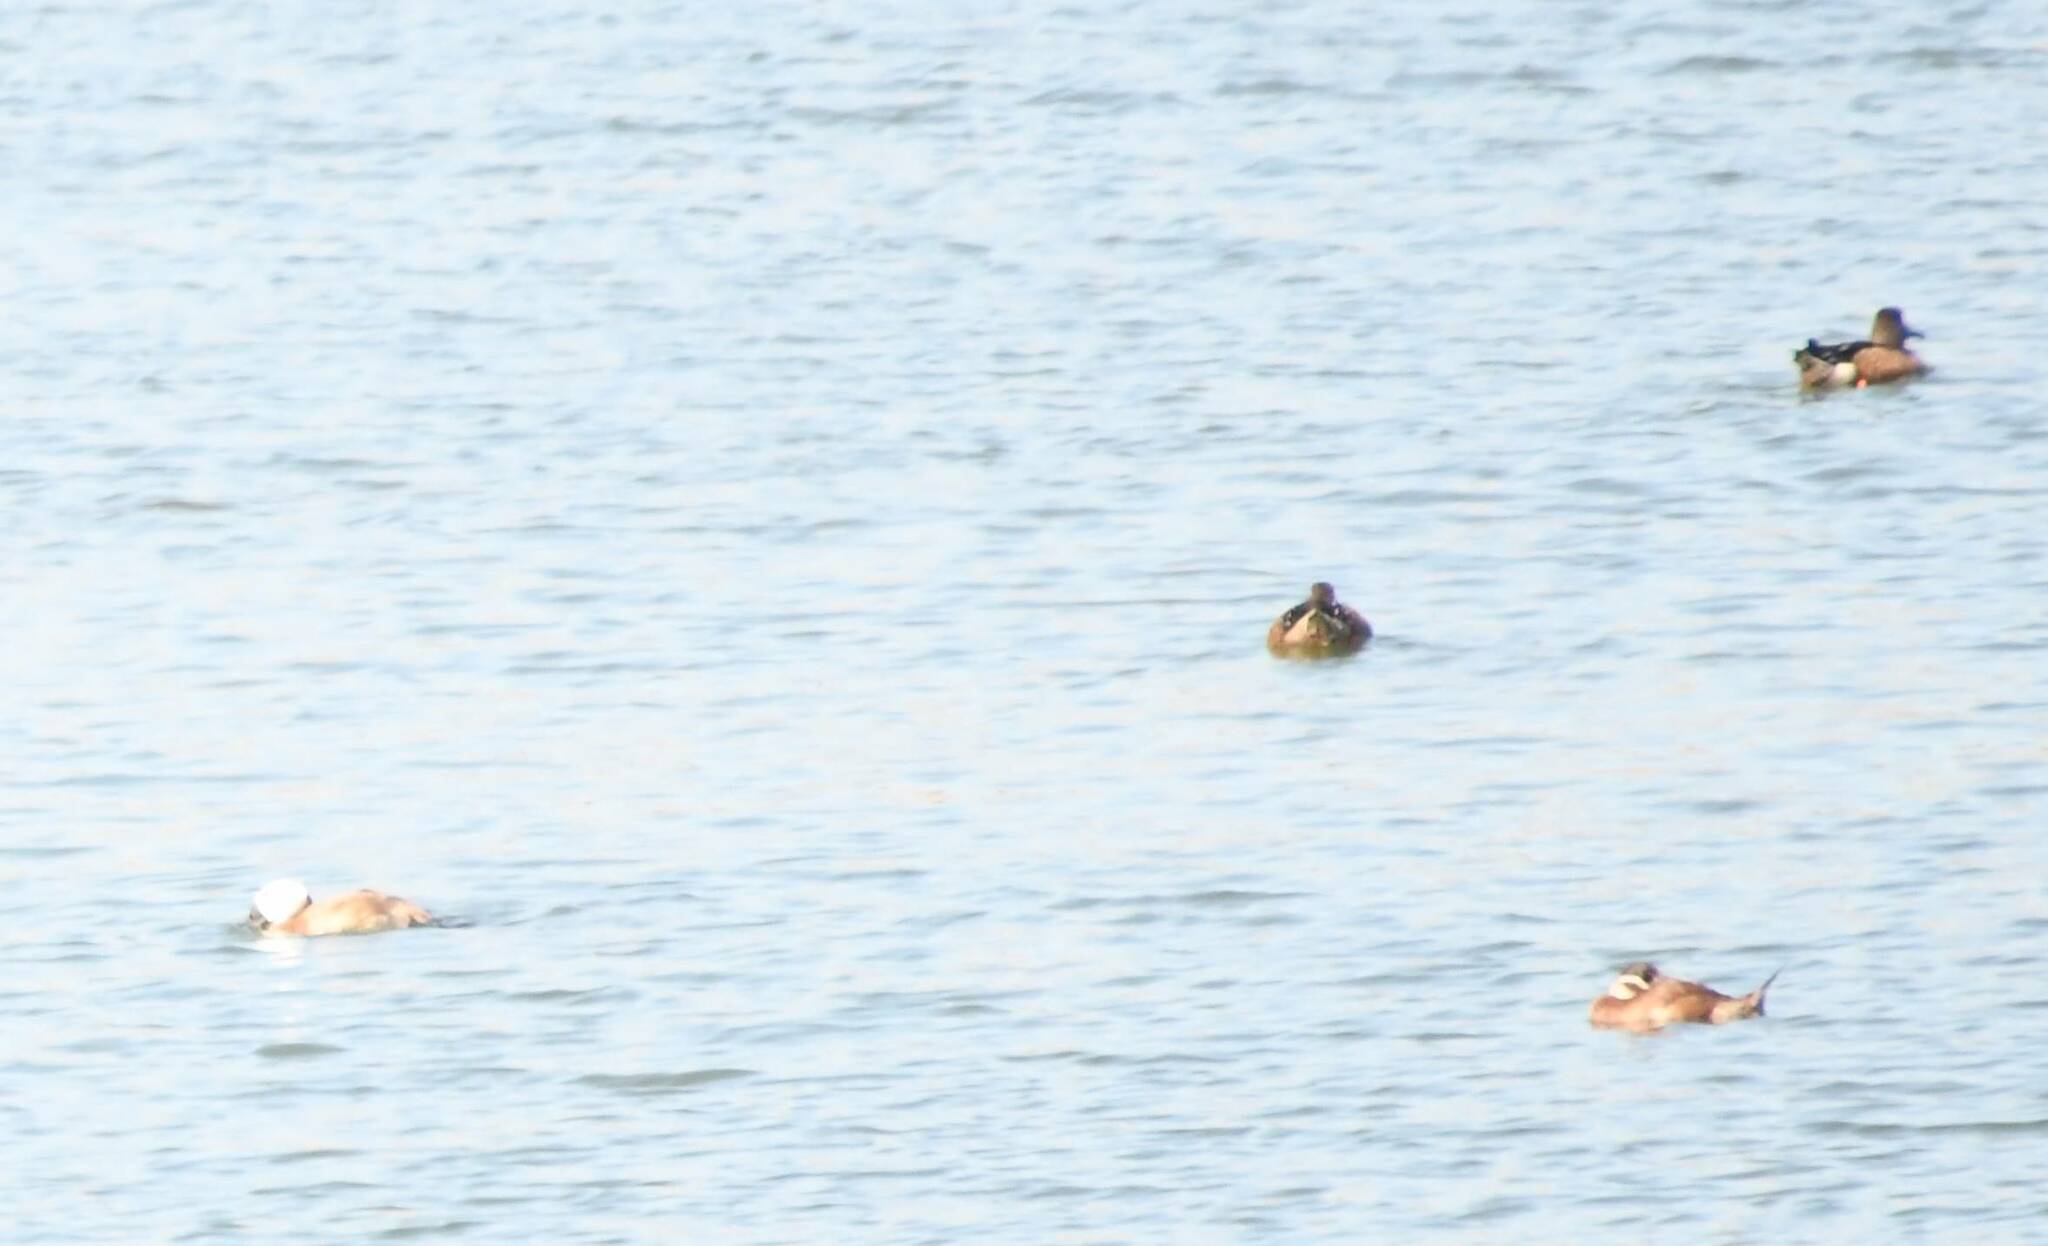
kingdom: Animalia
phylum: Chordata
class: Aves
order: Anseriformes
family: Anatidae
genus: Oxyura
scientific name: Oxyura leucocephala
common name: White-headed duck
